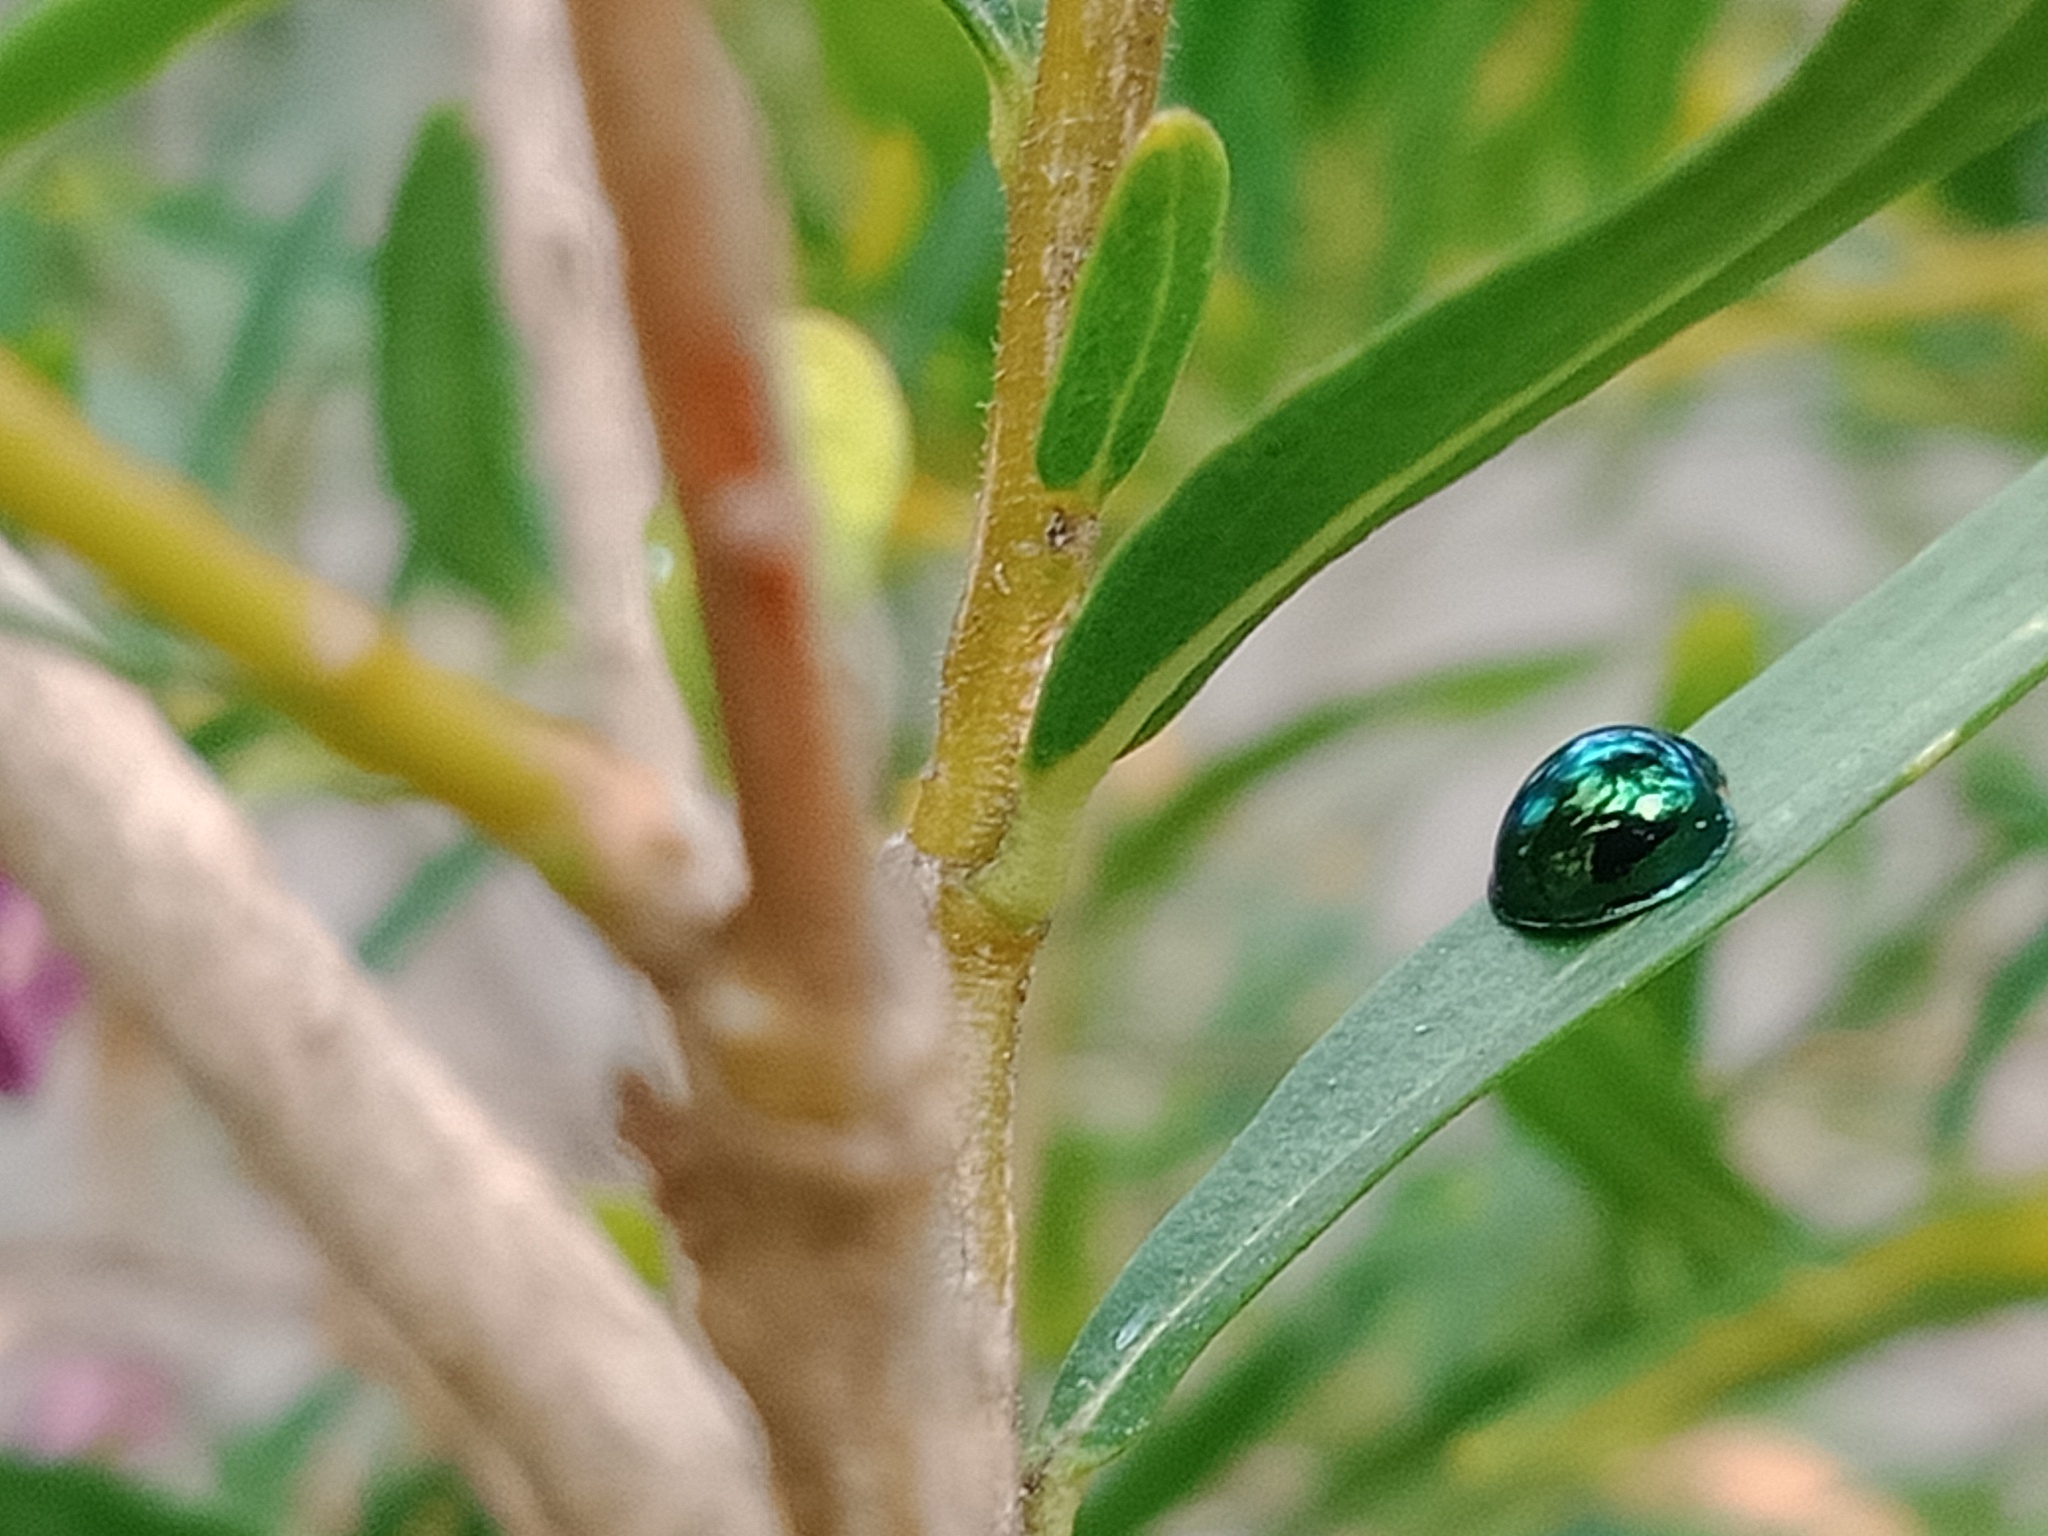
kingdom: Animalia
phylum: Arthropoda
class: Insecta
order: Coleoptera
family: Coccinellidae
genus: Halmus
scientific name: Halmus chalybeus
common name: Steel blue ladybird beetle
